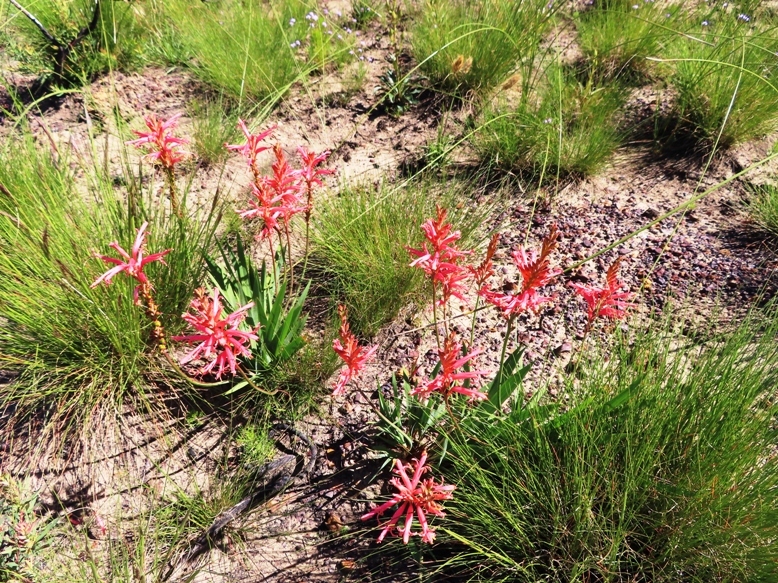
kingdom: Plantae
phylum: Tracheophyta
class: Liliopsida
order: Asparagales
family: Iridaceae
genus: Tritoniopsis
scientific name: Tritoniopsis antholyza
